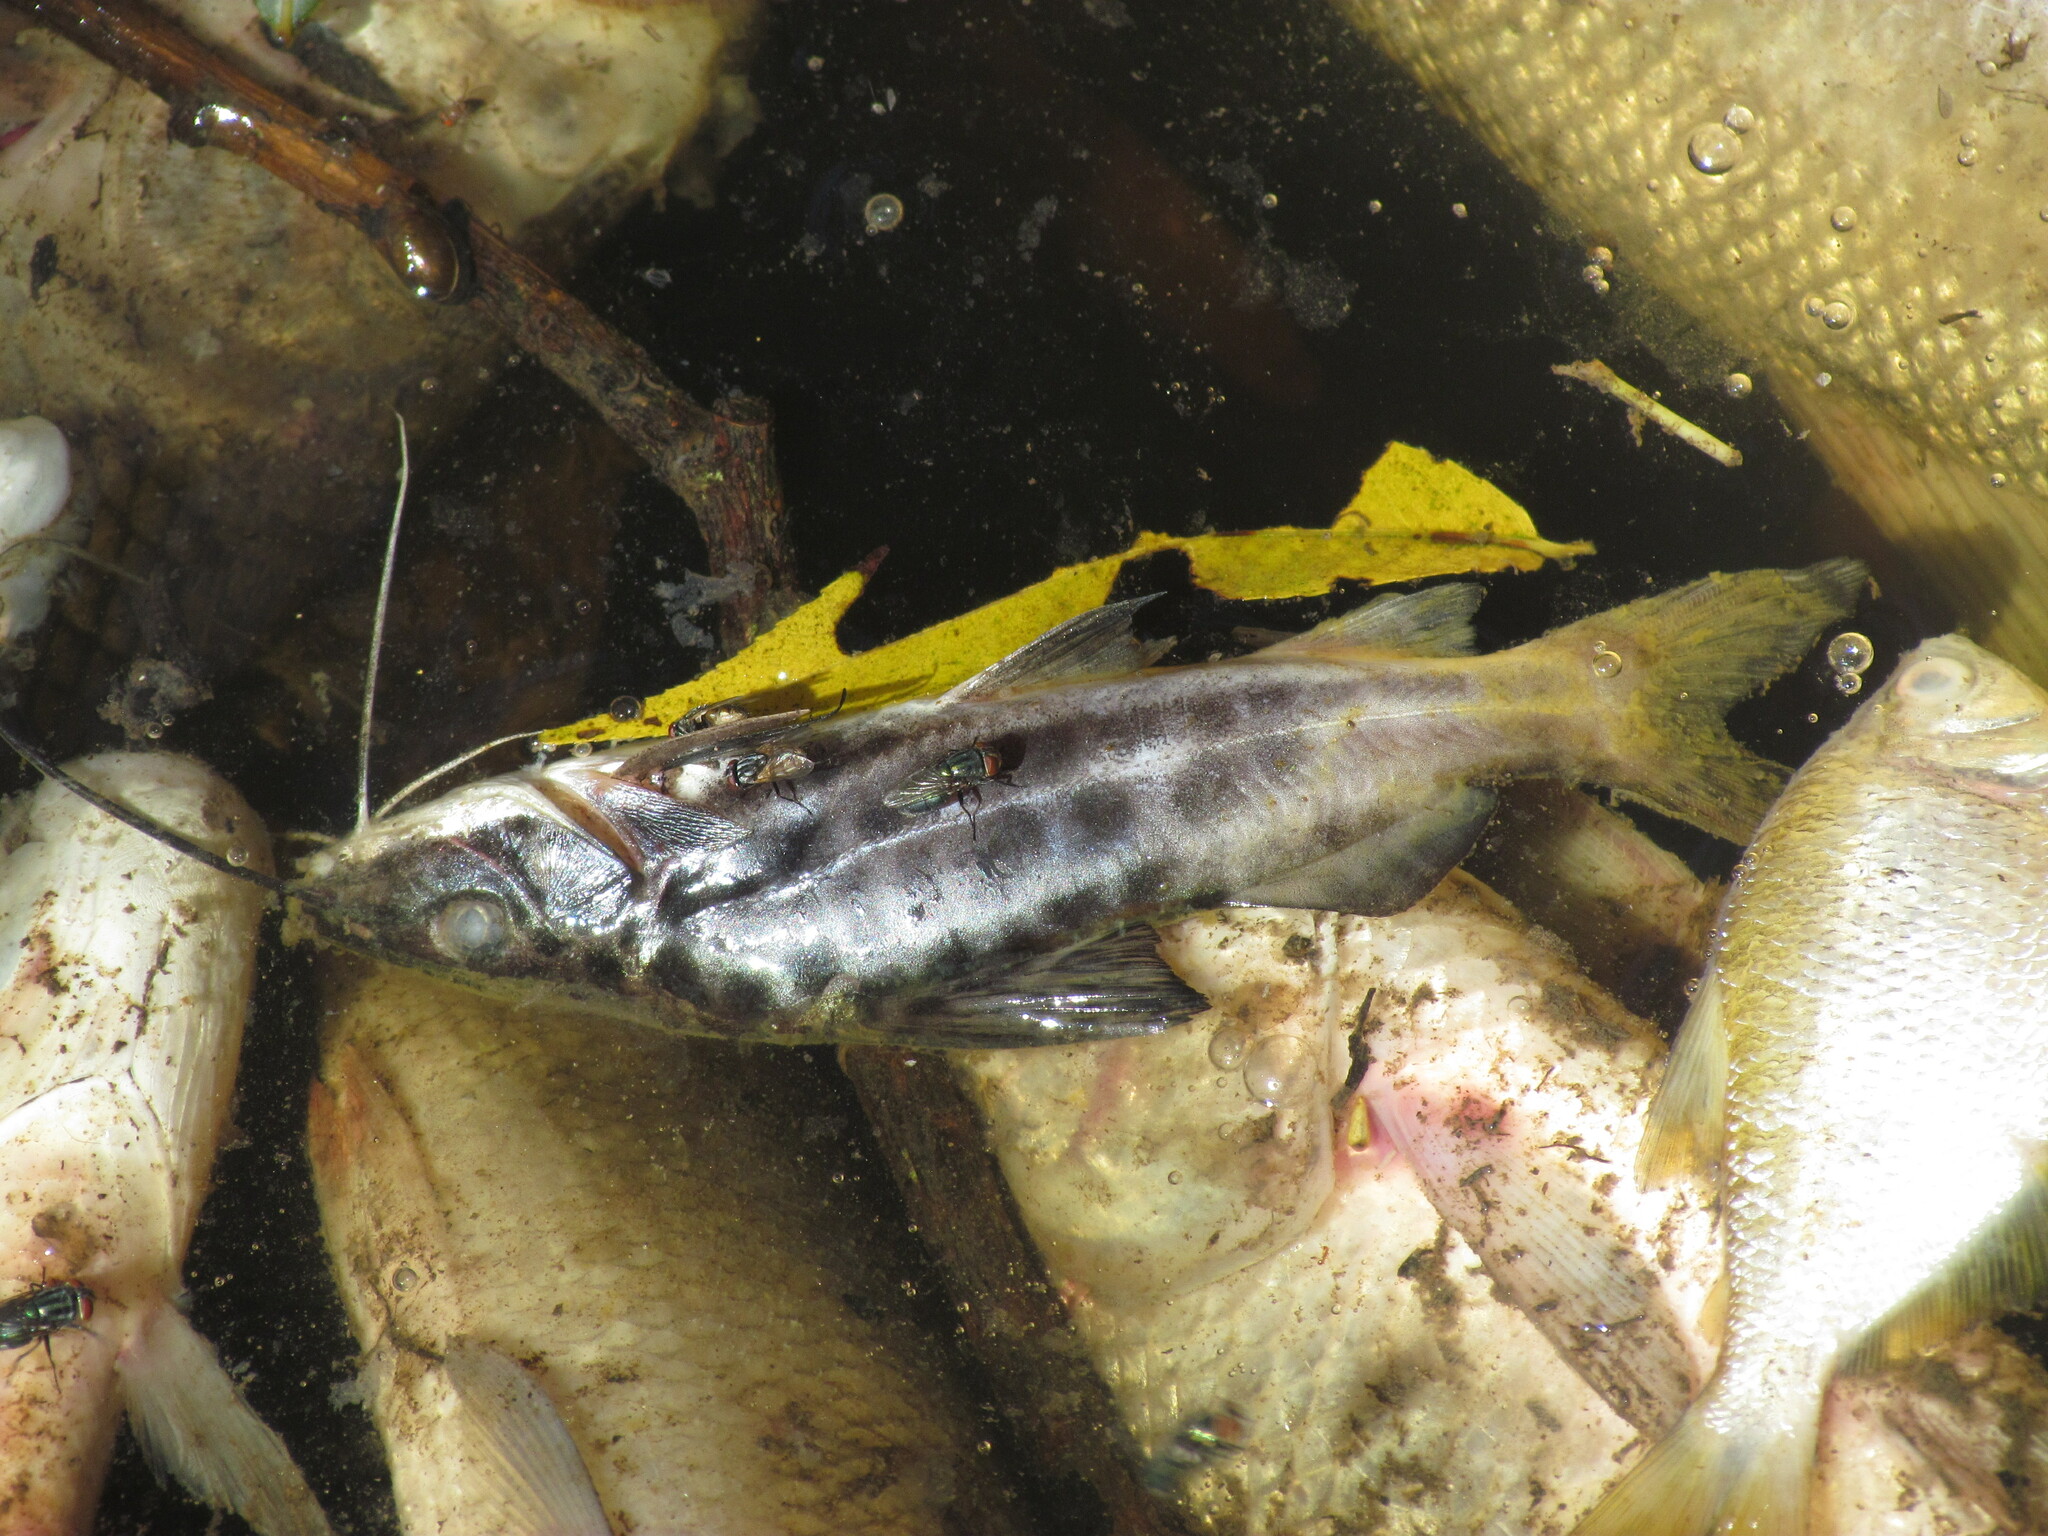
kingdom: Animalia
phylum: Chordata
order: Siluriformes
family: Pimelodidae
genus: Pimelodus
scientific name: Pimelodus maculatus
